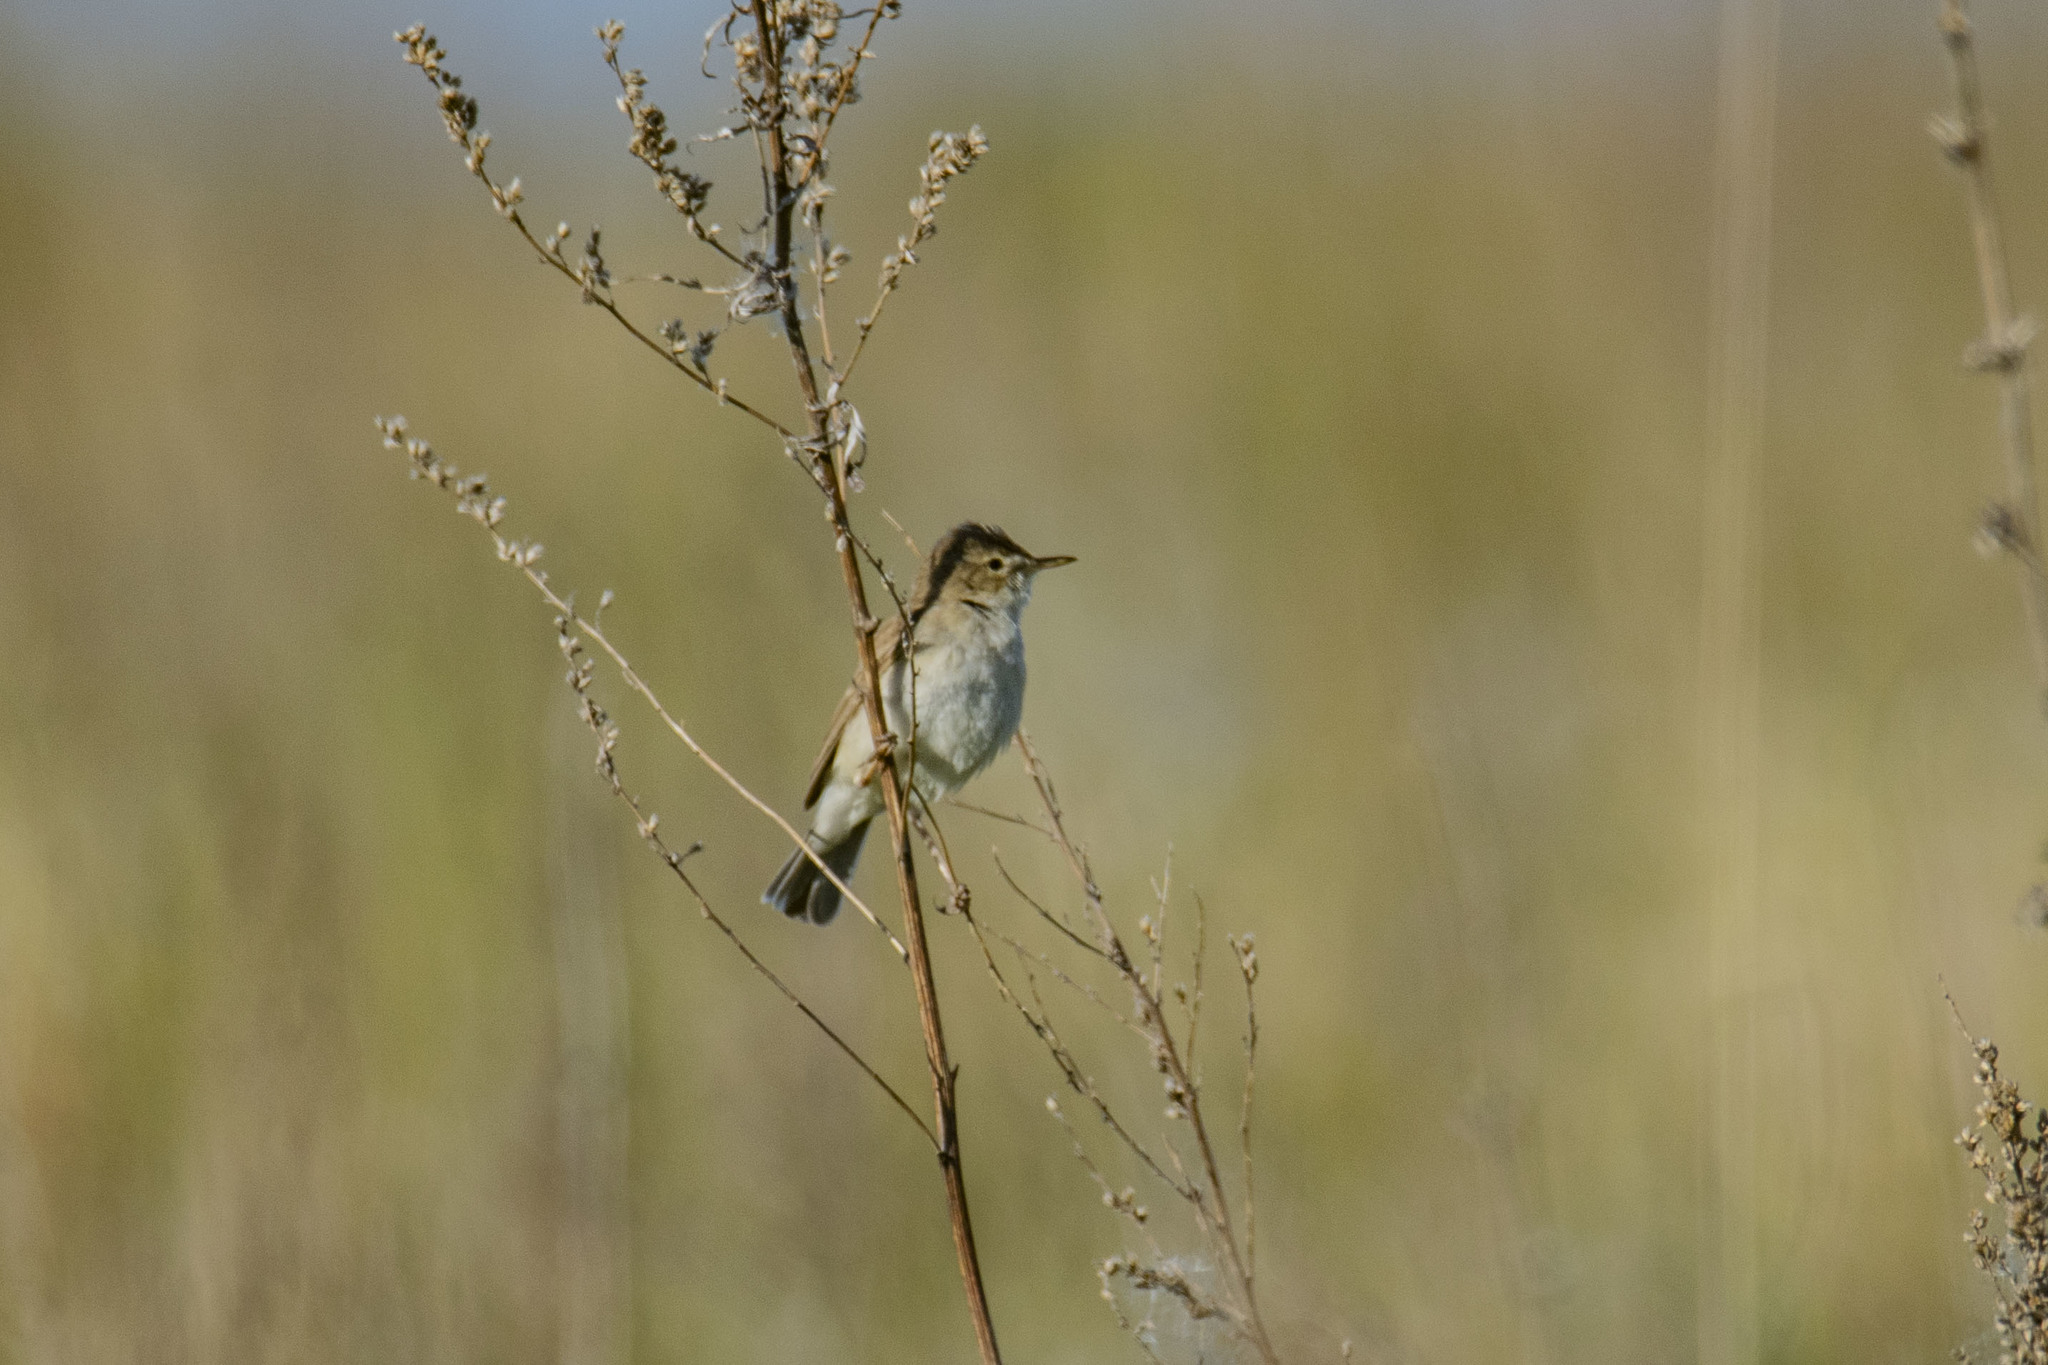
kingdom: Animalia
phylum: Chordata
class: Aves
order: Passeriformes
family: Acrocephalidae
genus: Iduna
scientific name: Iduna caligata
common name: Booted warbler
